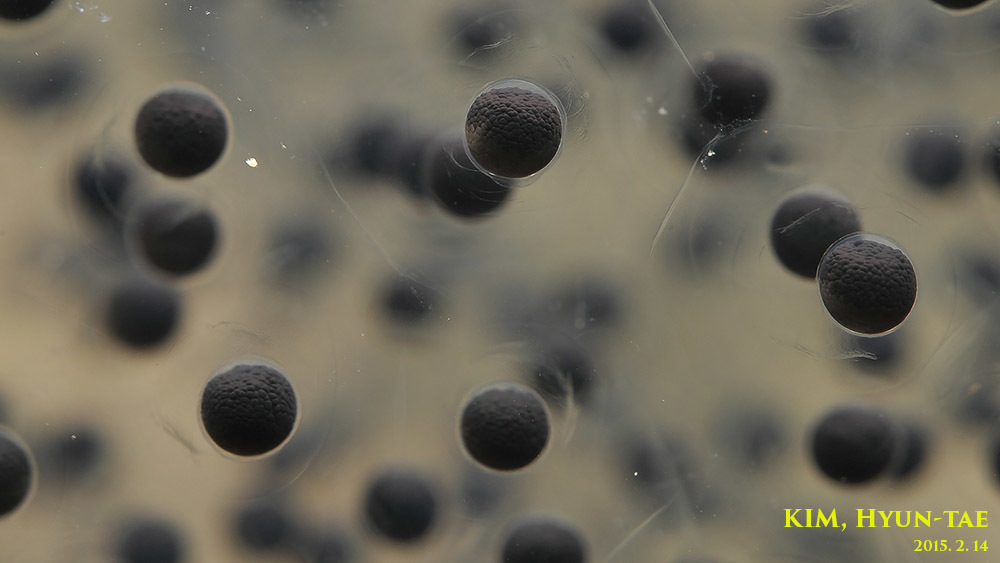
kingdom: Animalia
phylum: Chordata
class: Amphibia
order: Anura
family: Ranidae
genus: Rana
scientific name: Rana uenoi
